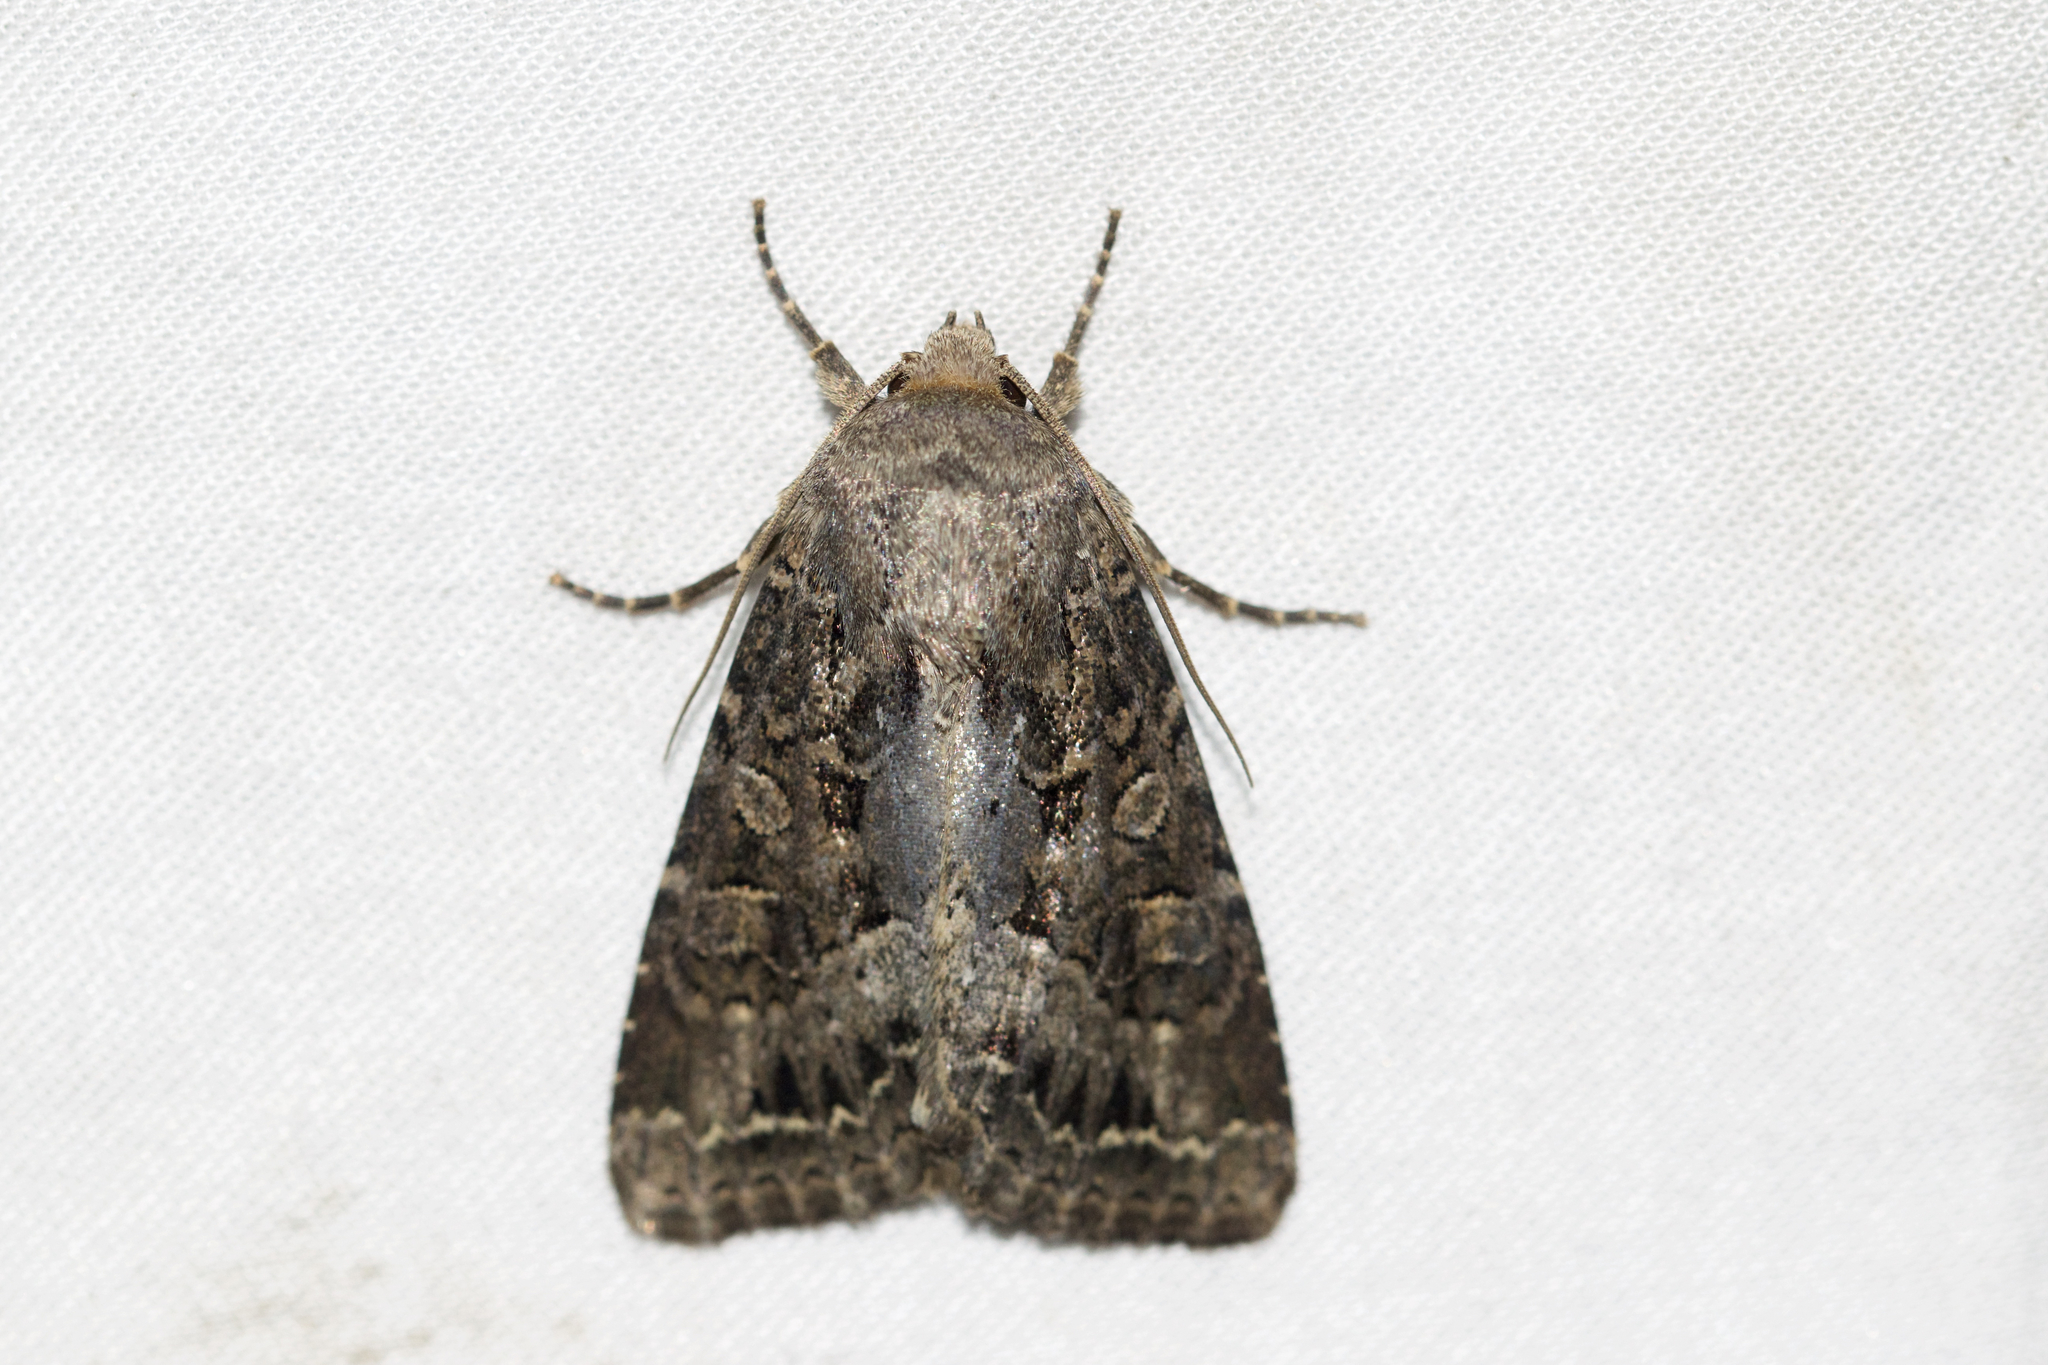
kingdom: Animalia
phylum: Arthropoda
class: Insecta
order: Lepidoptera
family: Noctuidae
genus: Apamea
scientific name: Apamea devastator
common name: Glassy cutworm
